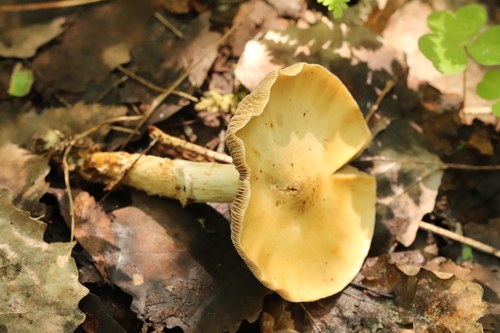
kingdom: Fungi
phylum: Basidiomycota
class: Agaricomycetes
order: Agaricales
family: Cortinariaceae
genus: Cortinarius
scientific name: Cortinarius trivialis
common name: Girdled webcap
